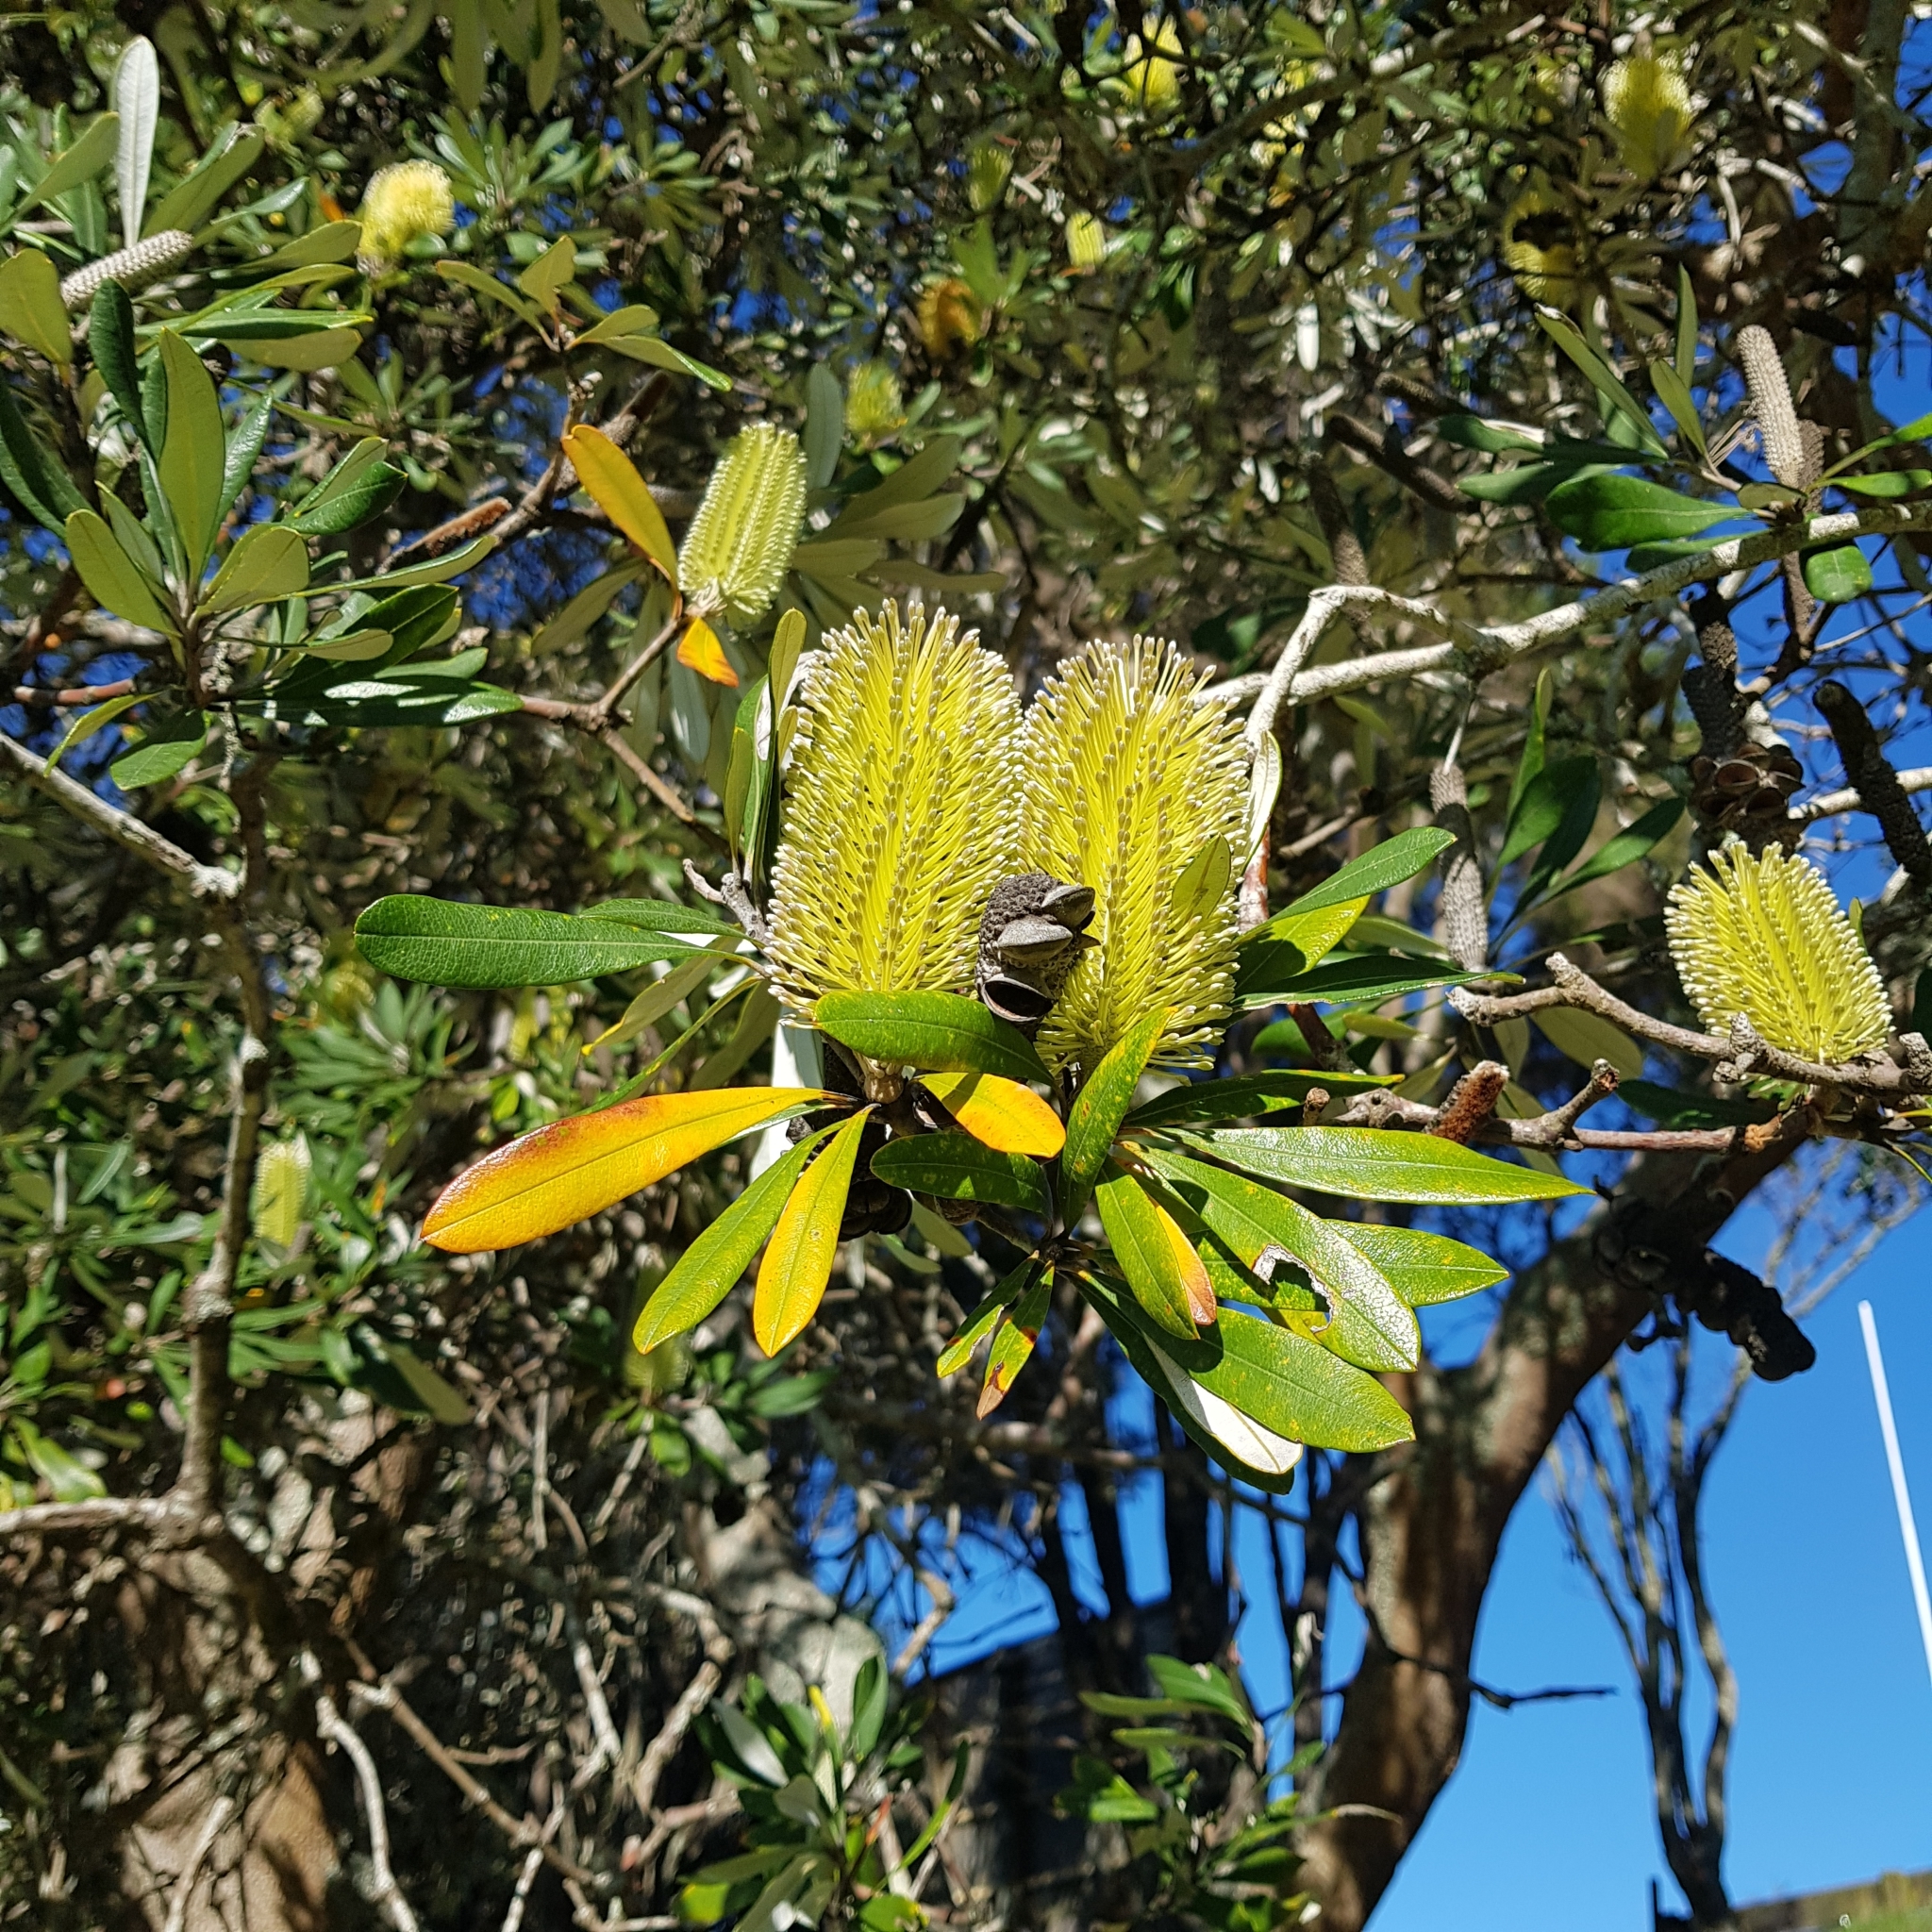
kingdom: Plantae
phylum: Tracheophyta
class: Magnoliopsida
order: Proteales
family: Proteaceae
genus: Banksia
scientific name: Banksia integrifolia
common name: White-honeysuckle
